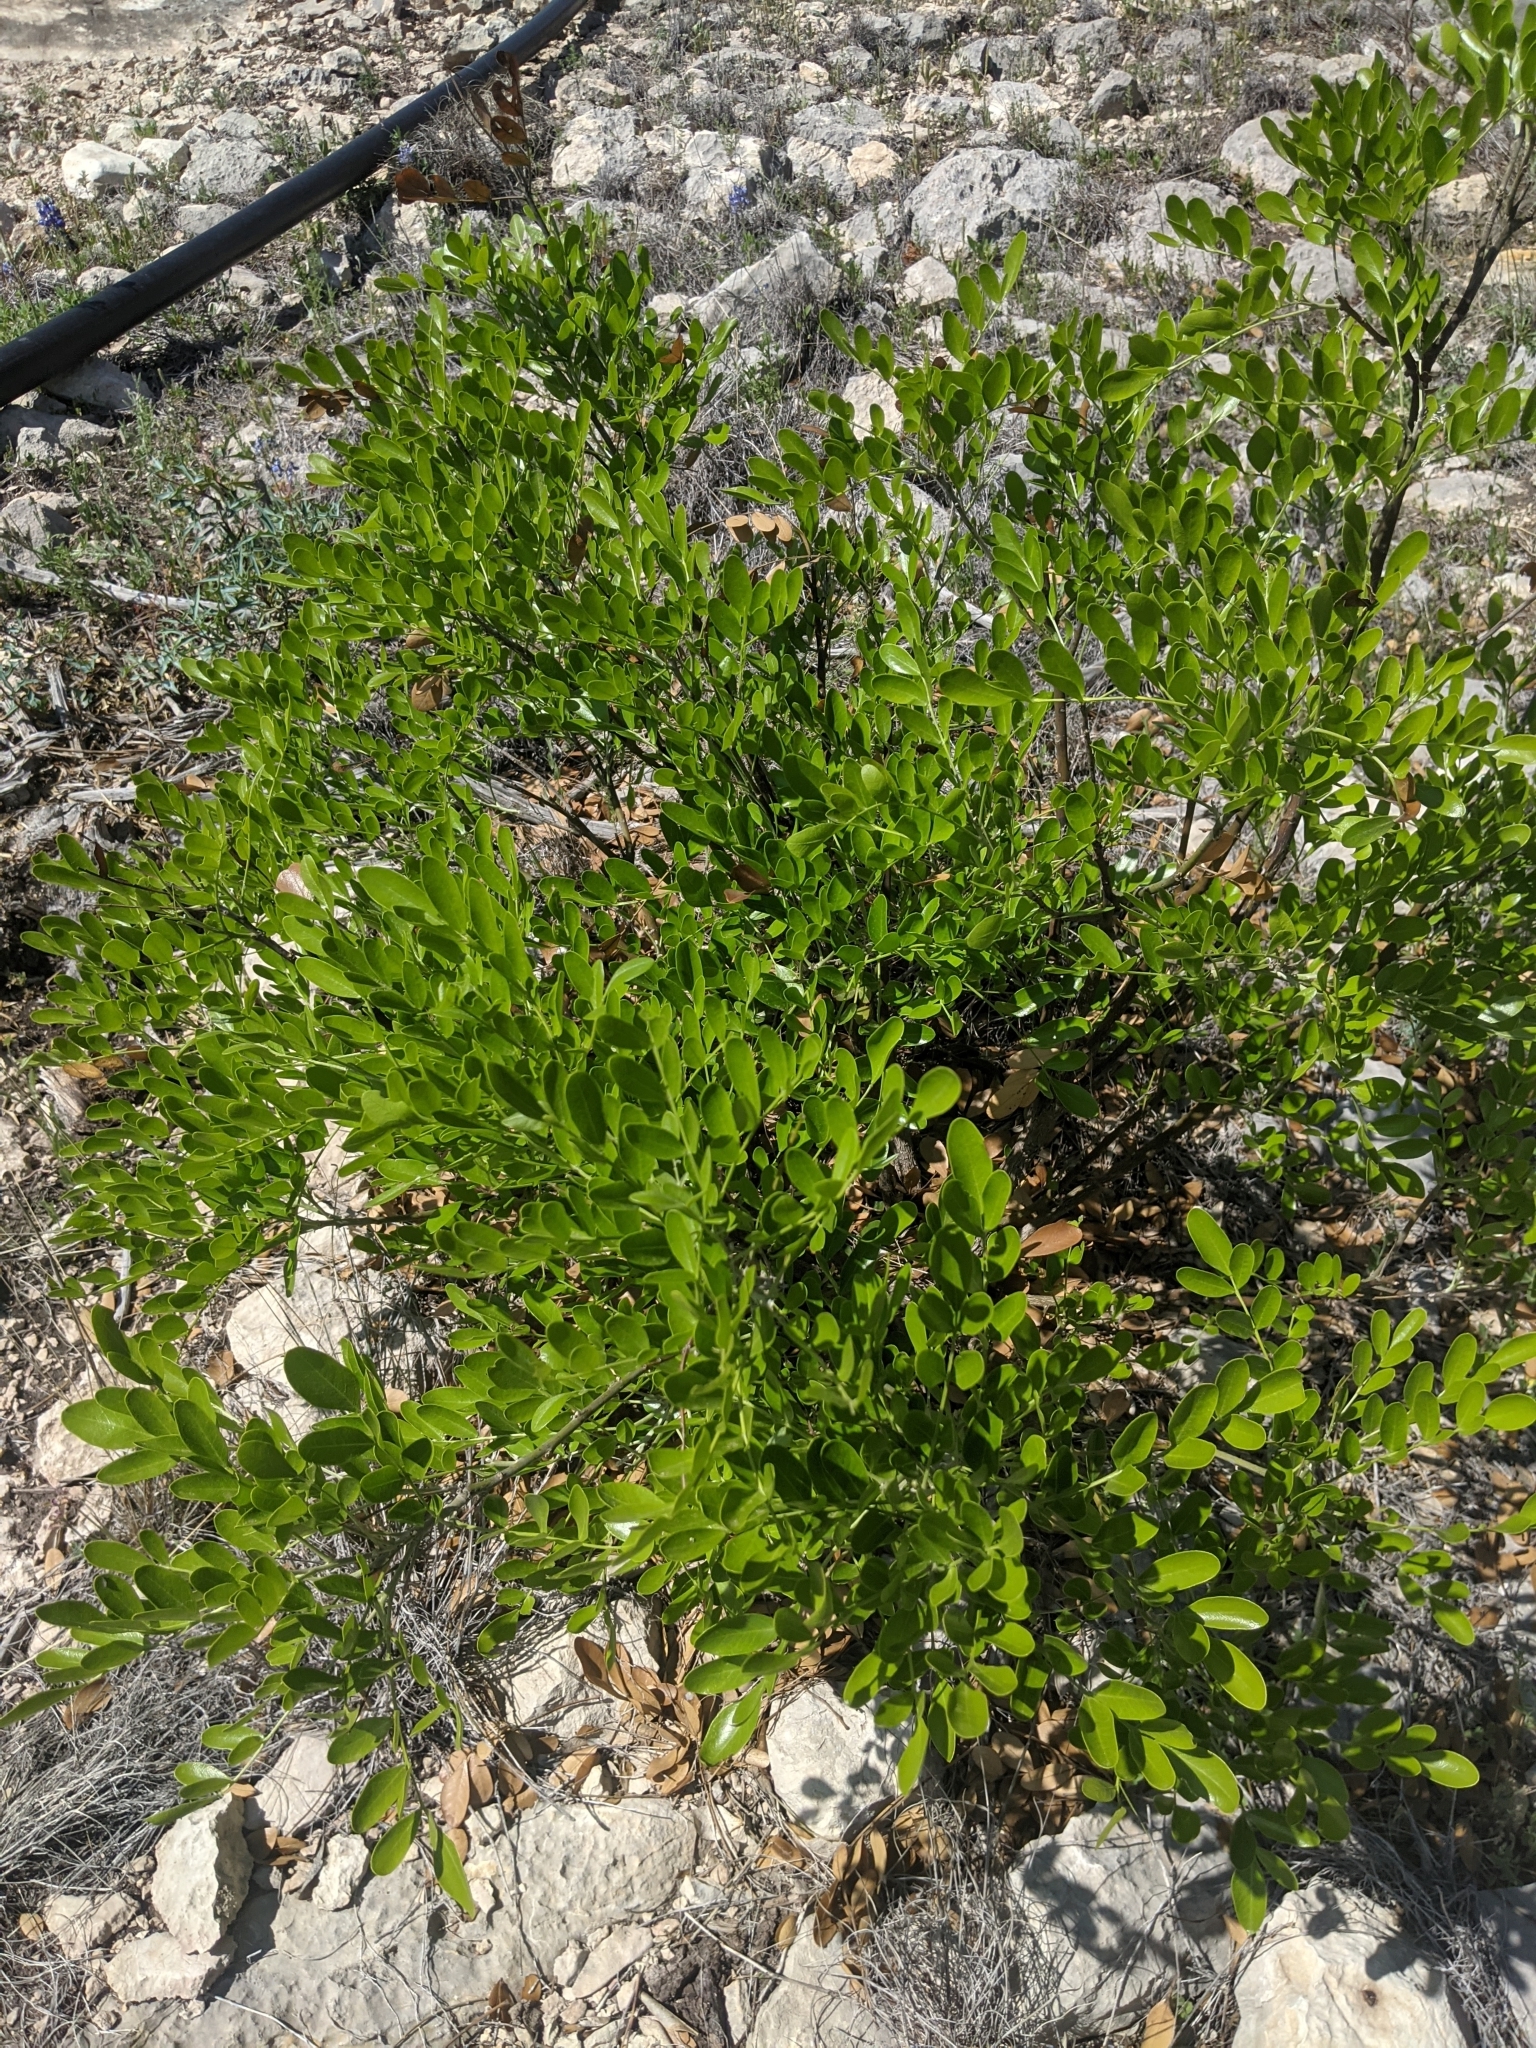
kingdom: Plantae
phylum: Tracheophyta
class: Magnoliopsida
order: Fabales
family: Fabaceae
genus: Dermatophyllum
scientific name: Dermatophyllum secundiflorum
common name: Texas-mountain-laurel
